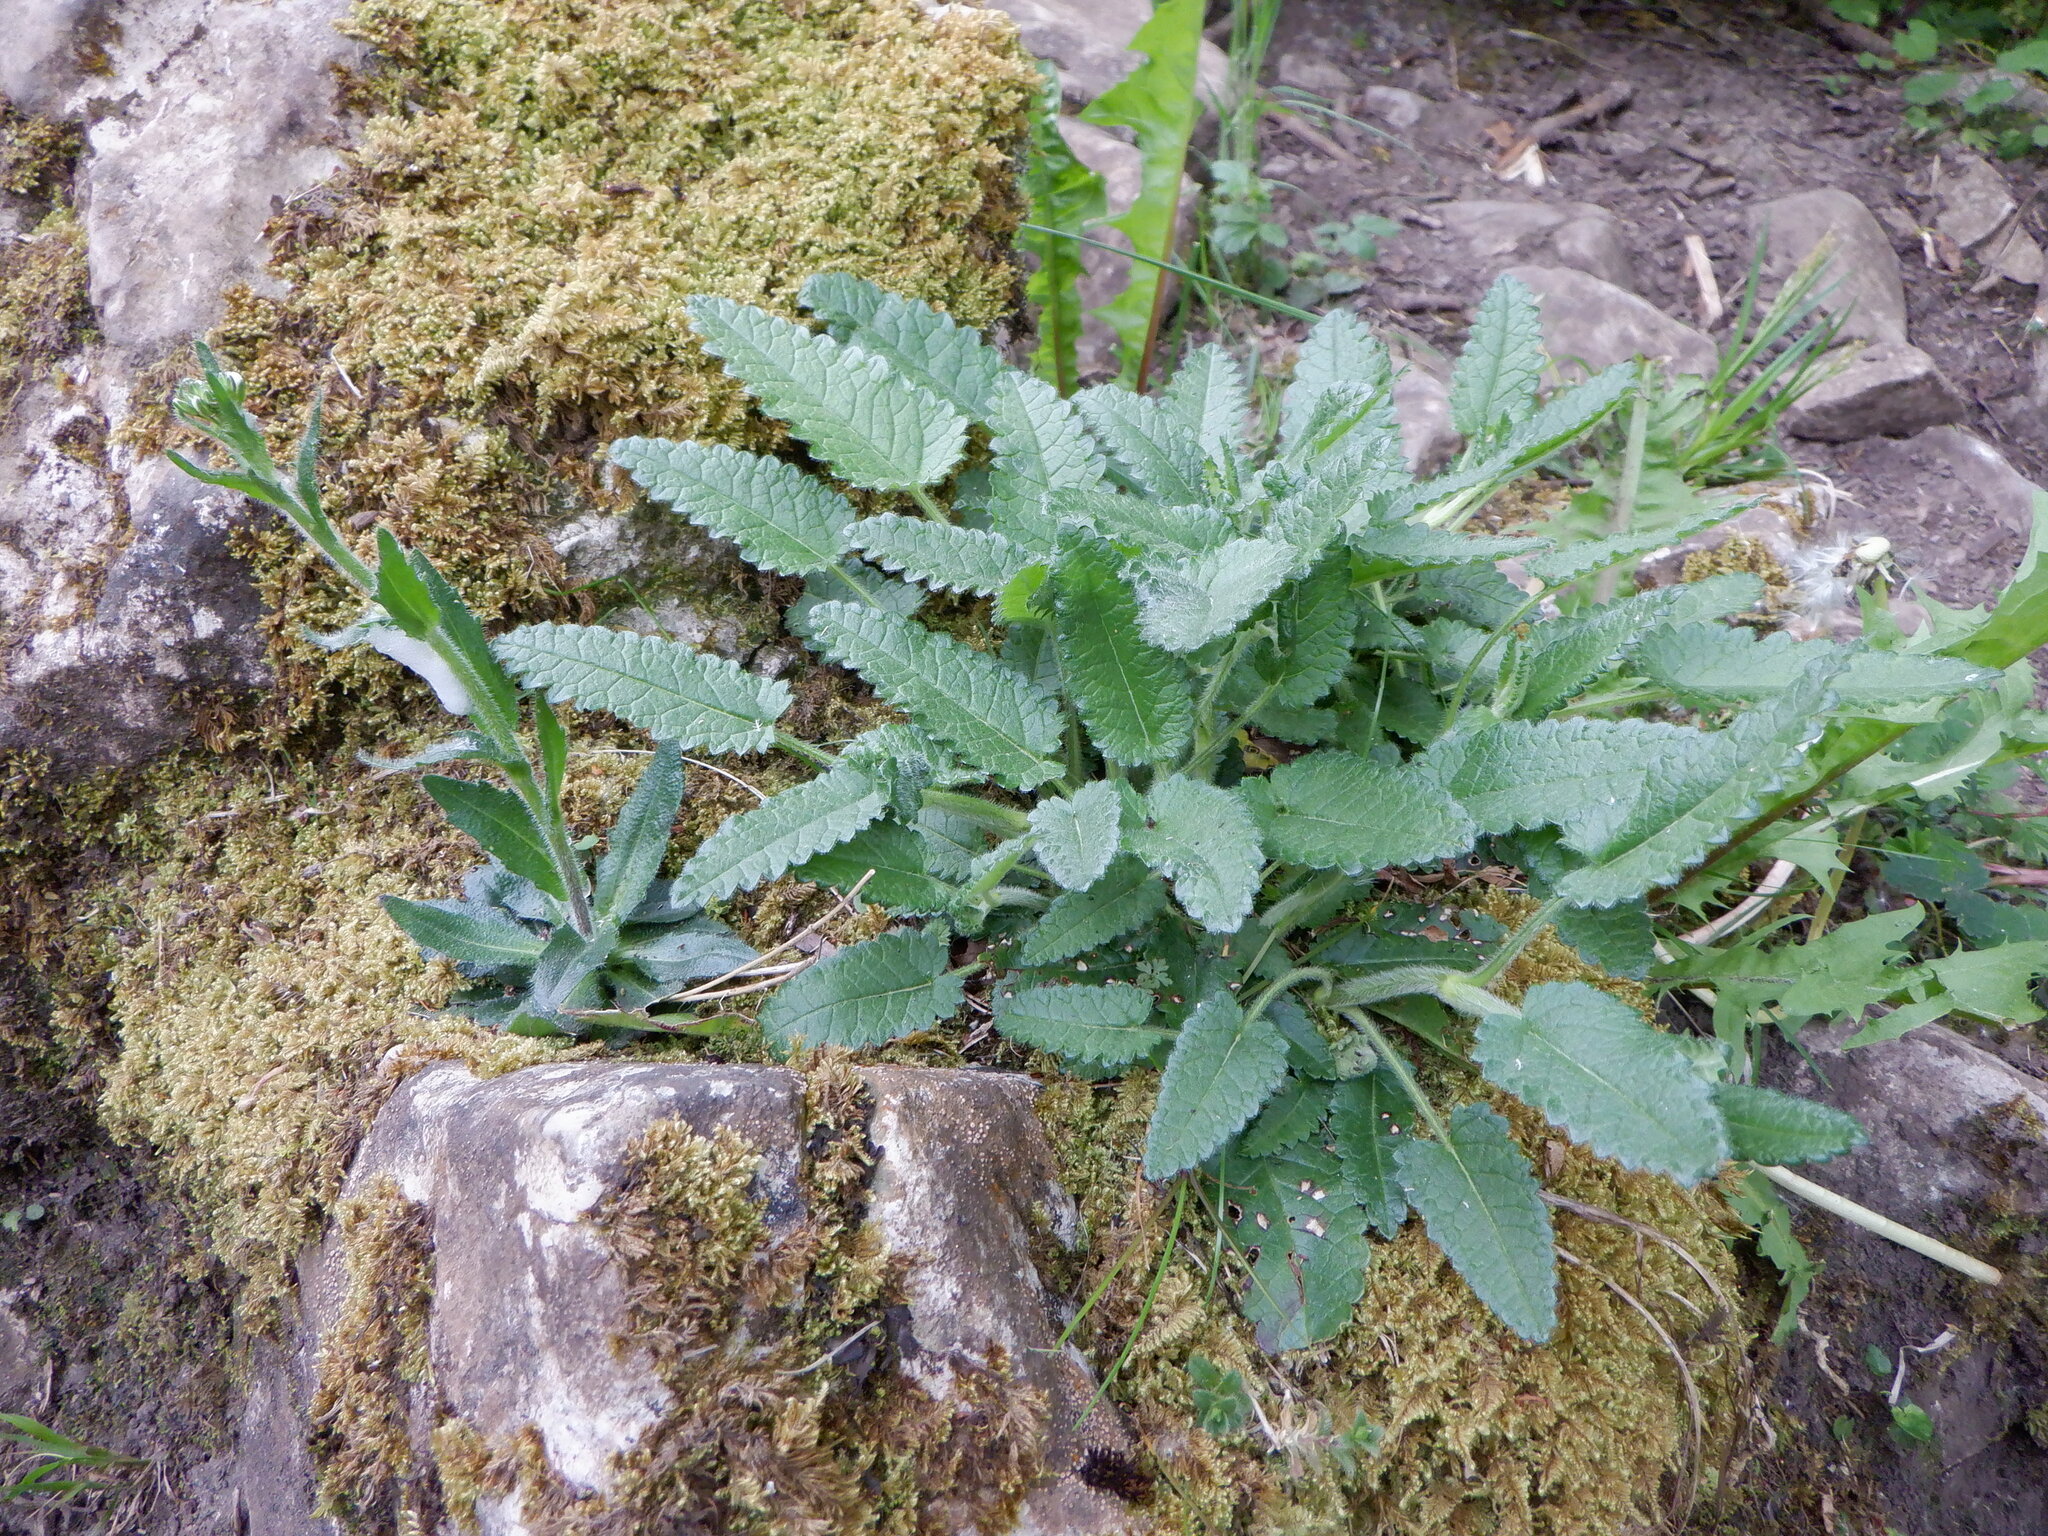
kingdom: Plantae
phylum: Tracheophyta
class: Magnoliopsida
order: Lamiales
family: Lamiaceae
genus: Betonica
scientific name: Betonica officinalis
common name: Bishop's-wort
